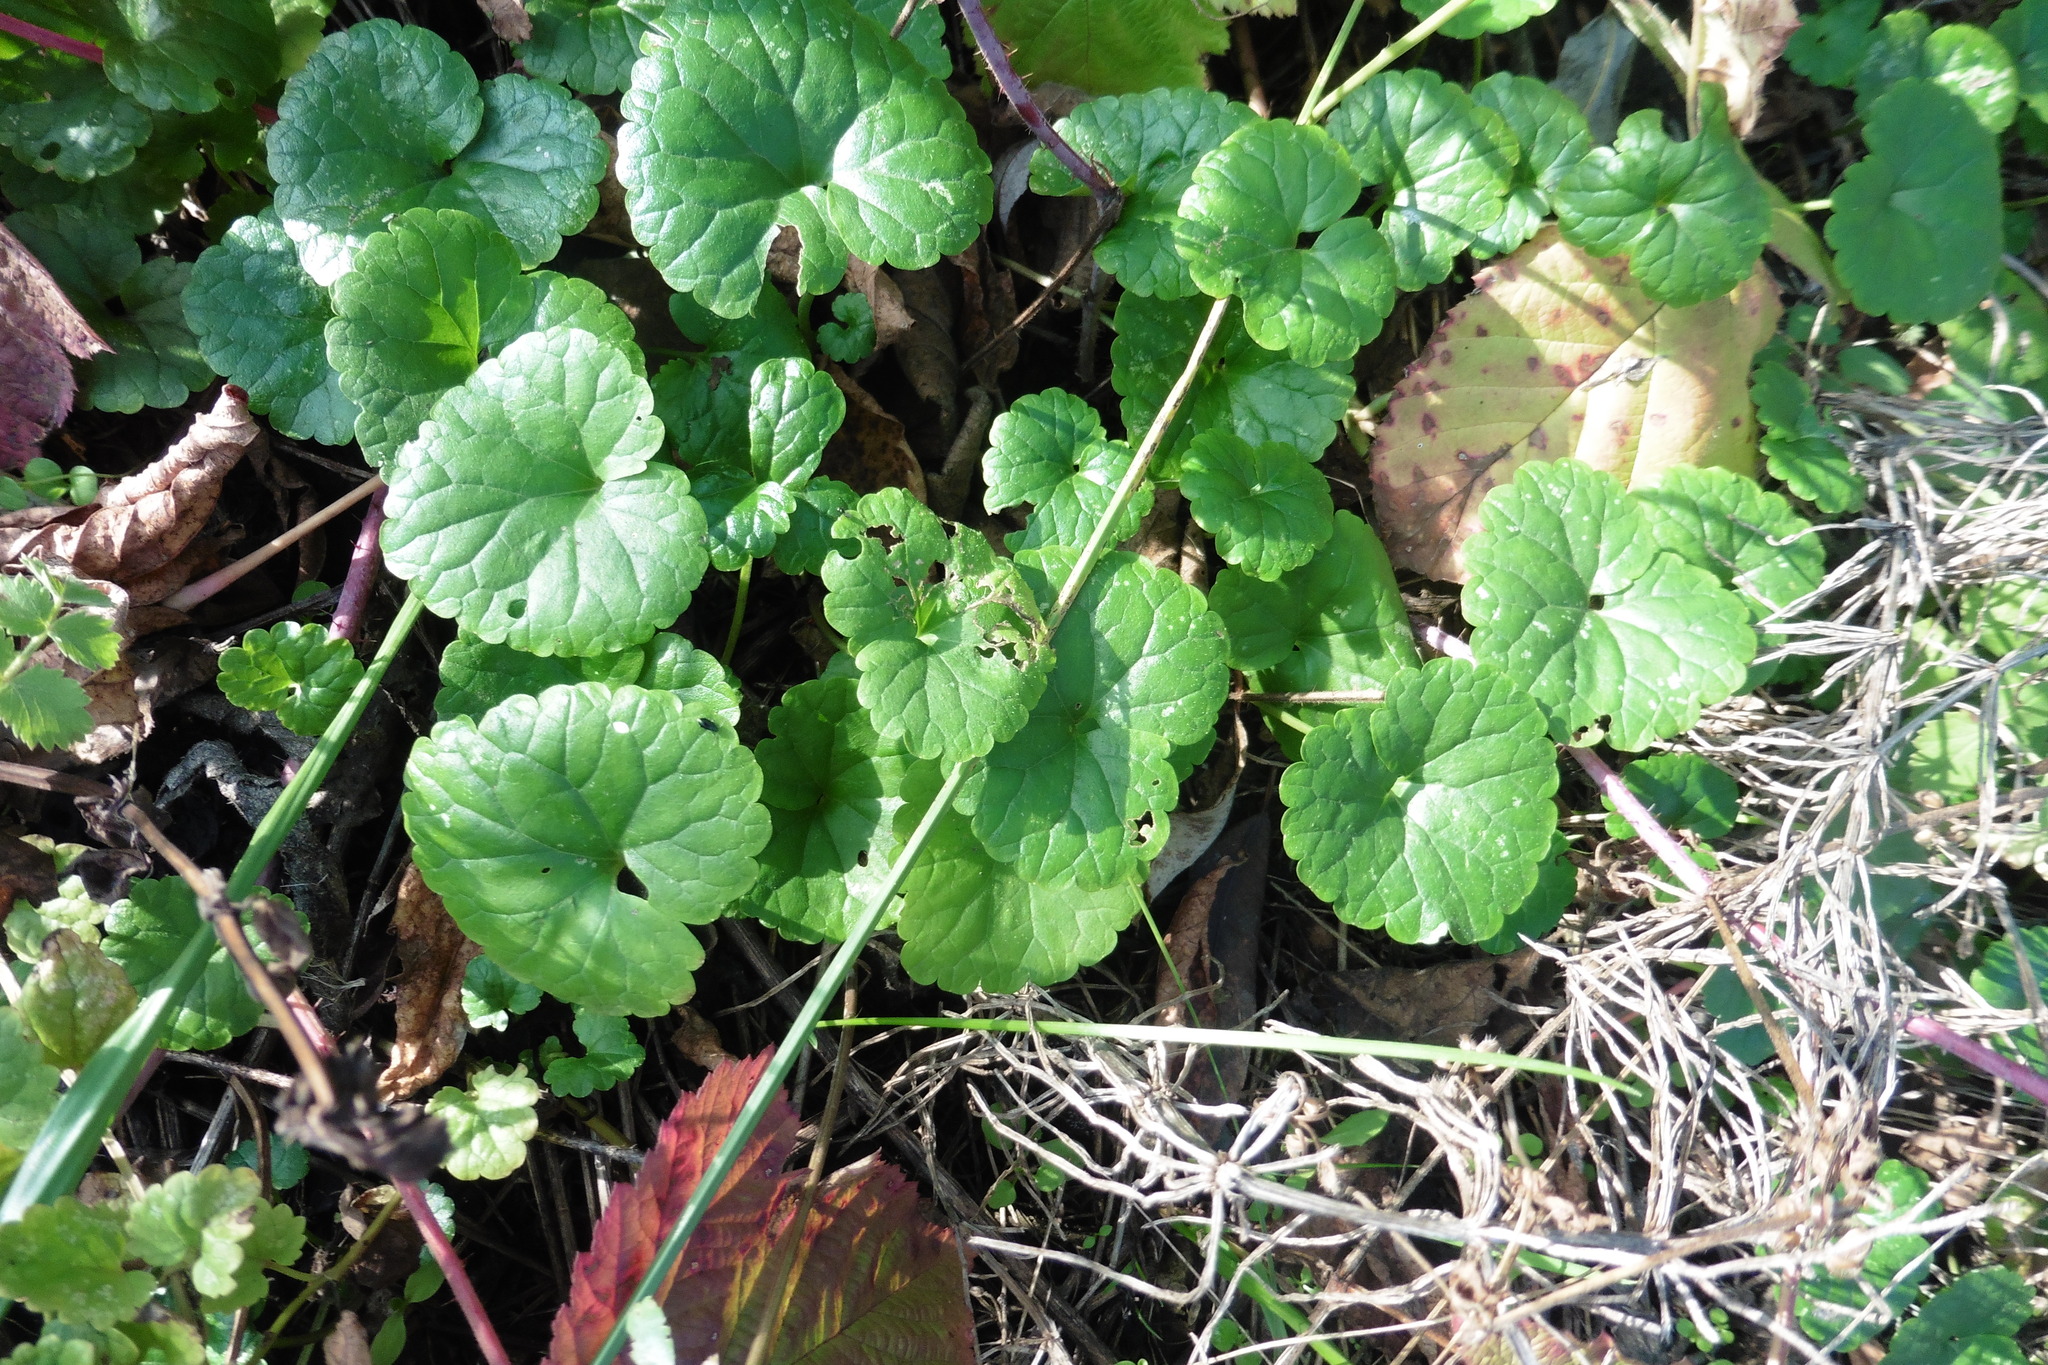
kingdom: Plantae
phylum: Tracheophyta
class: Magnoliopsida
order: Lamiales
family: Lamiaceae
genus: Glechoma
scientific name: Glechoma hederacea
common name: Ground ivy
